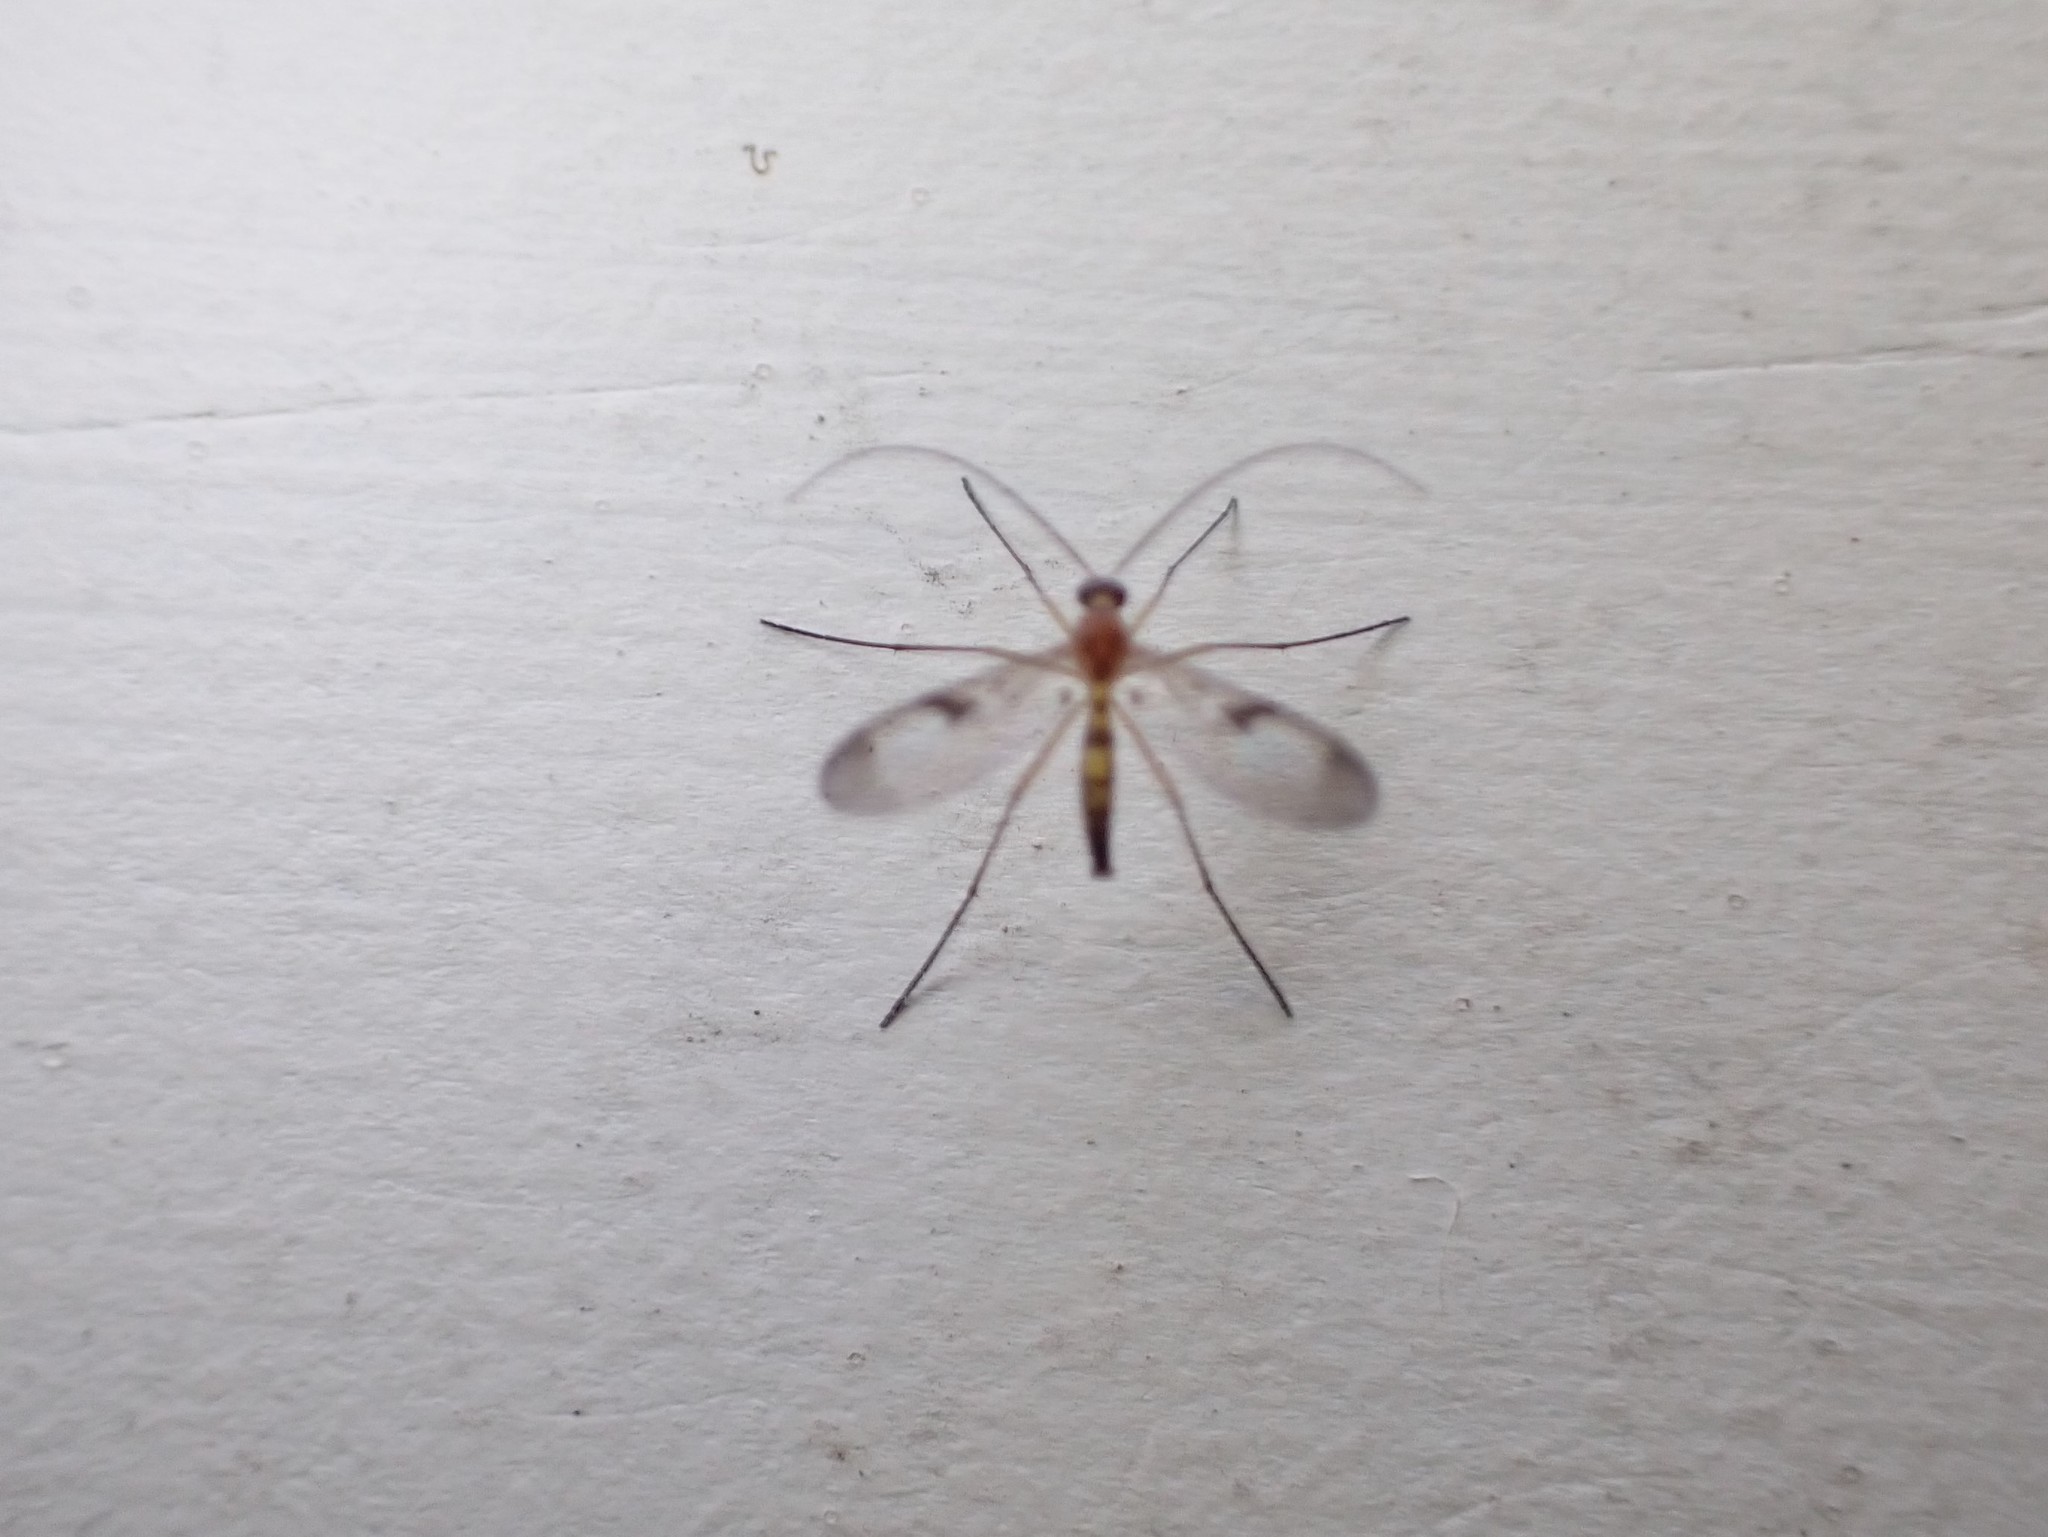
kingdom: Animalia
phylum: Arthropoda
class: Insecta
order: Diptera
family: Keroplatidae
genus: Macrocera
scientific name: Macrocera scoparia
